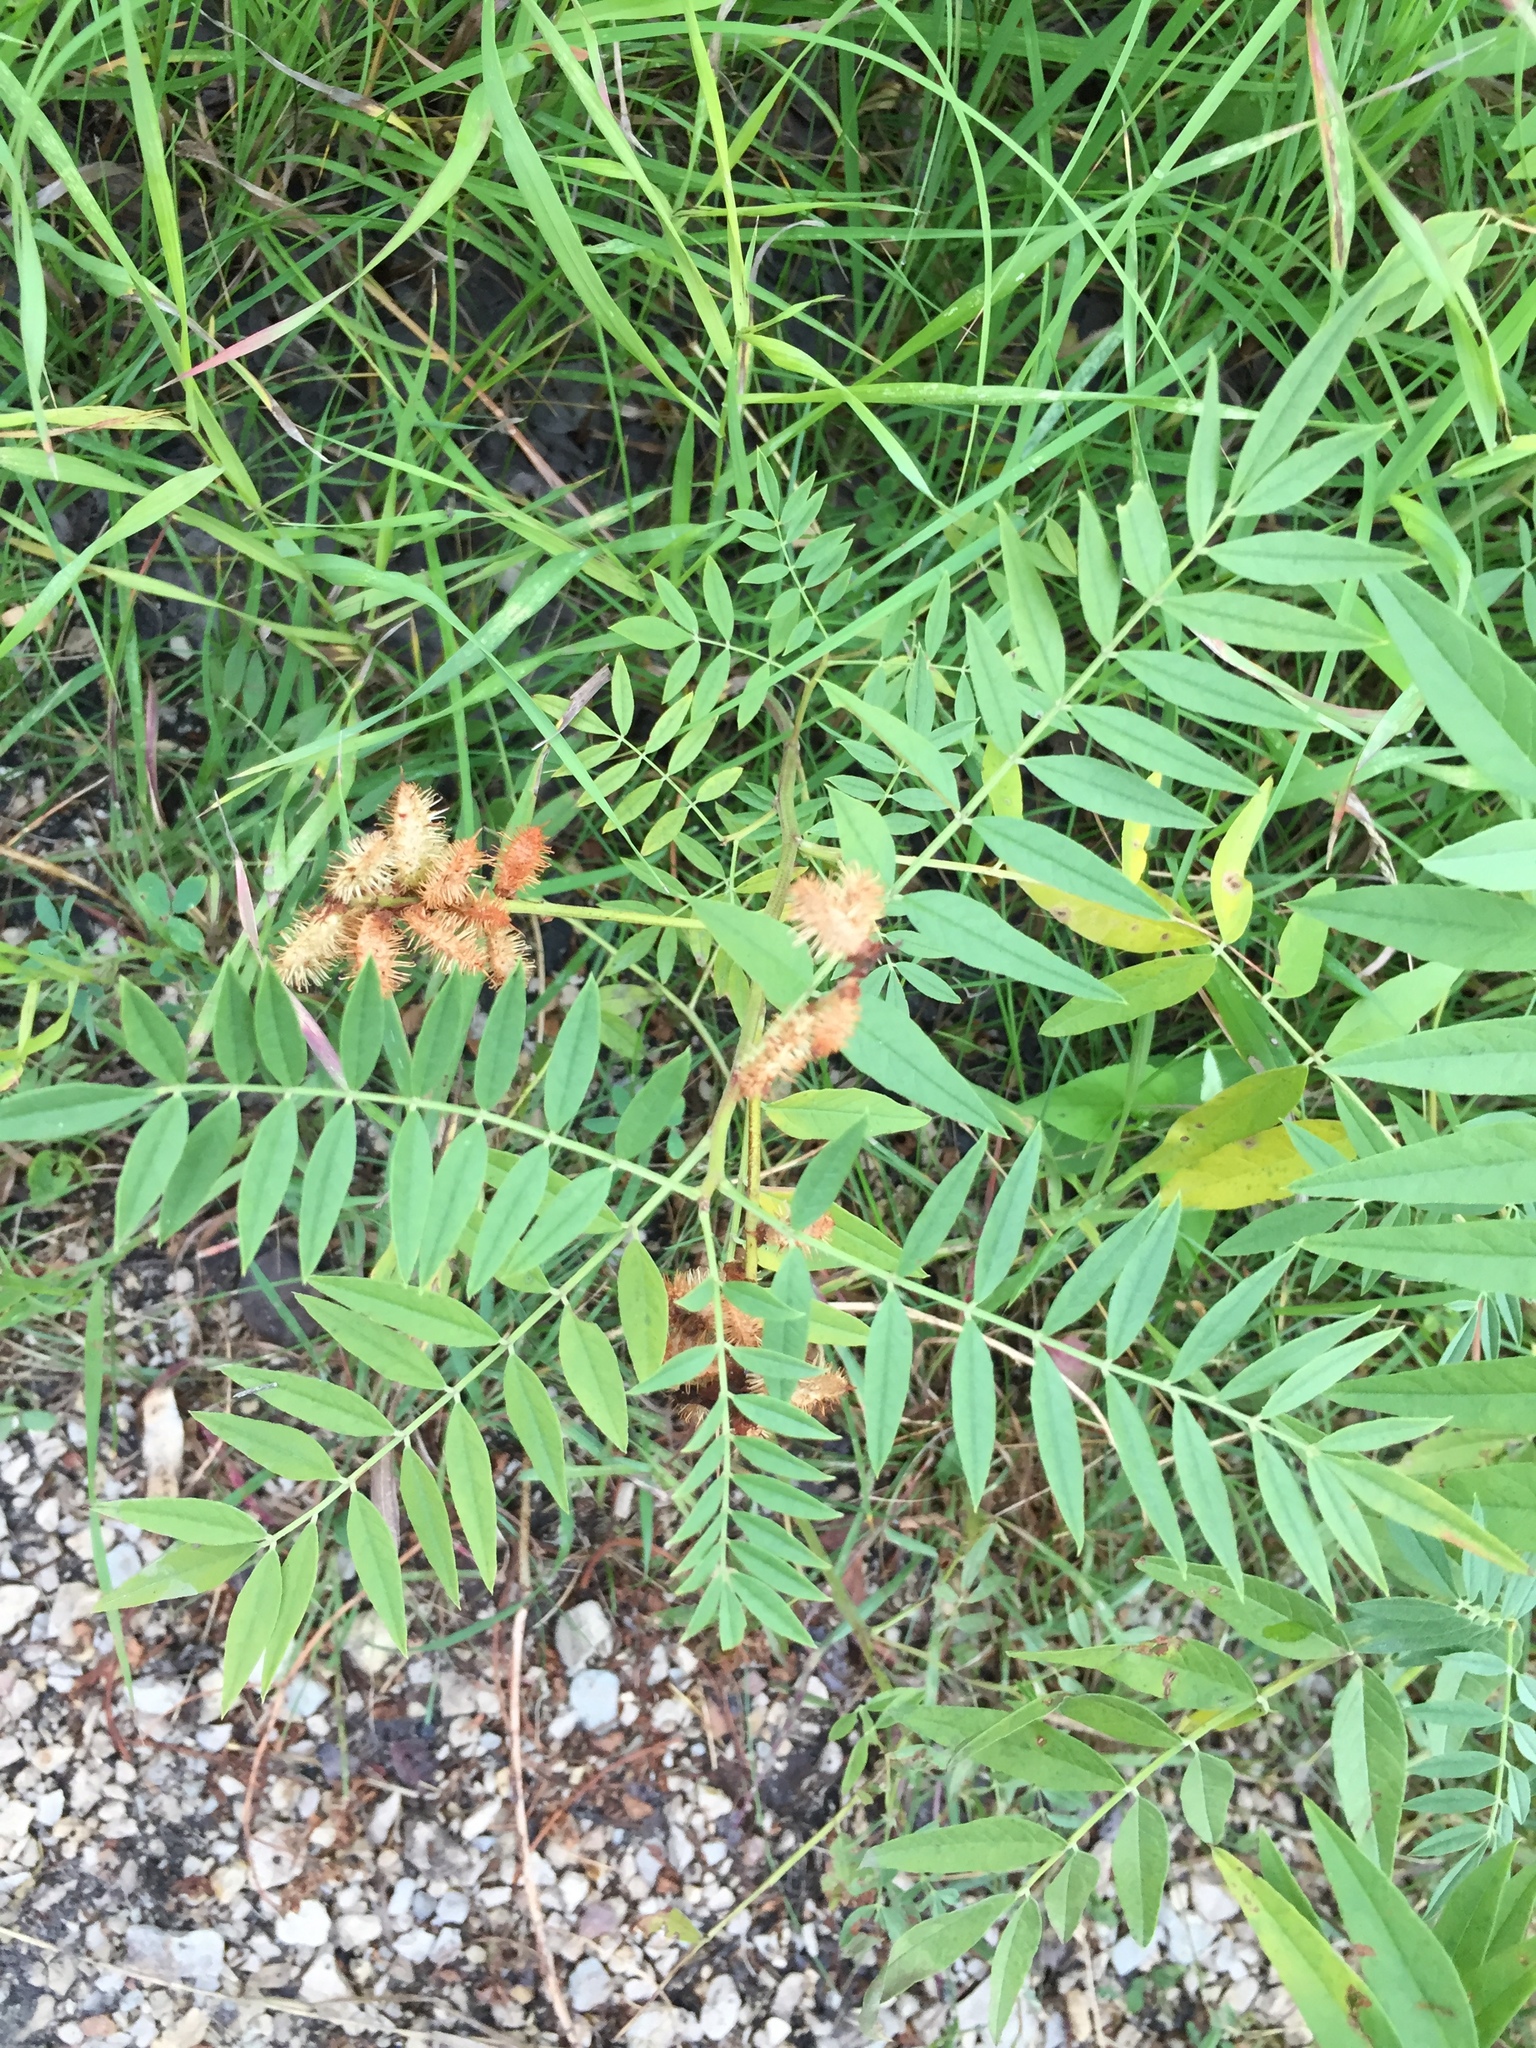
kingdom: Plantae
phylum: Tracheophyta
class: Magnoliopsida
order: Fabales
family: Fabaceae
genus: Glycyrrhiza
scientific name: Glycyrrhiza lepidota
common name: American liquorice
